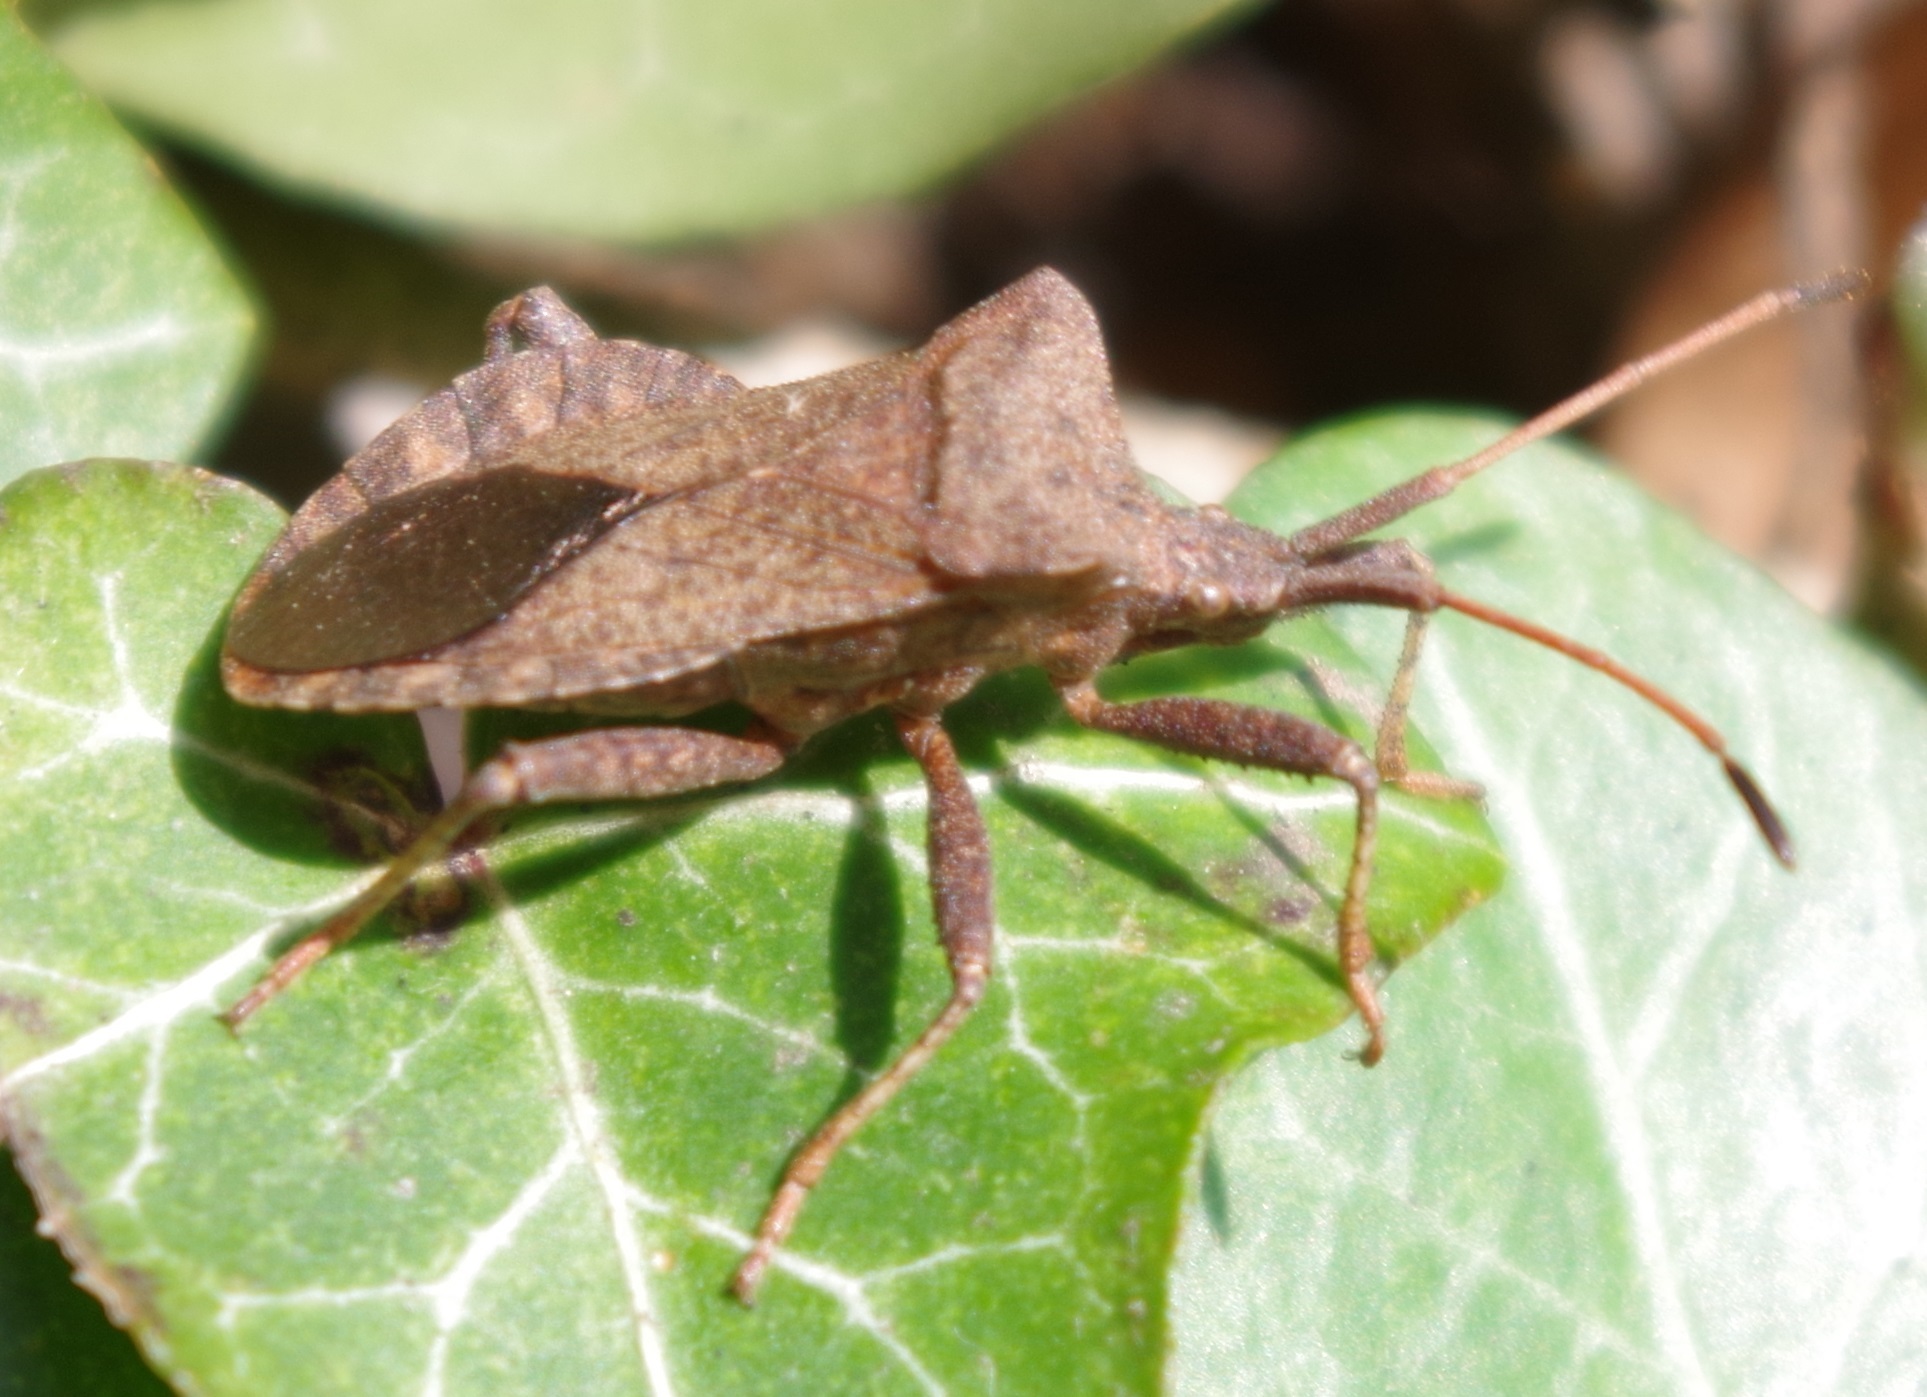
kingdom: Animalia
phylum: Arthropoda
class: Insecta
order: Hemiptera
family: Coreidae
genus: Coreus
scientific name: Coreus marginatus
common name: Dock bug
